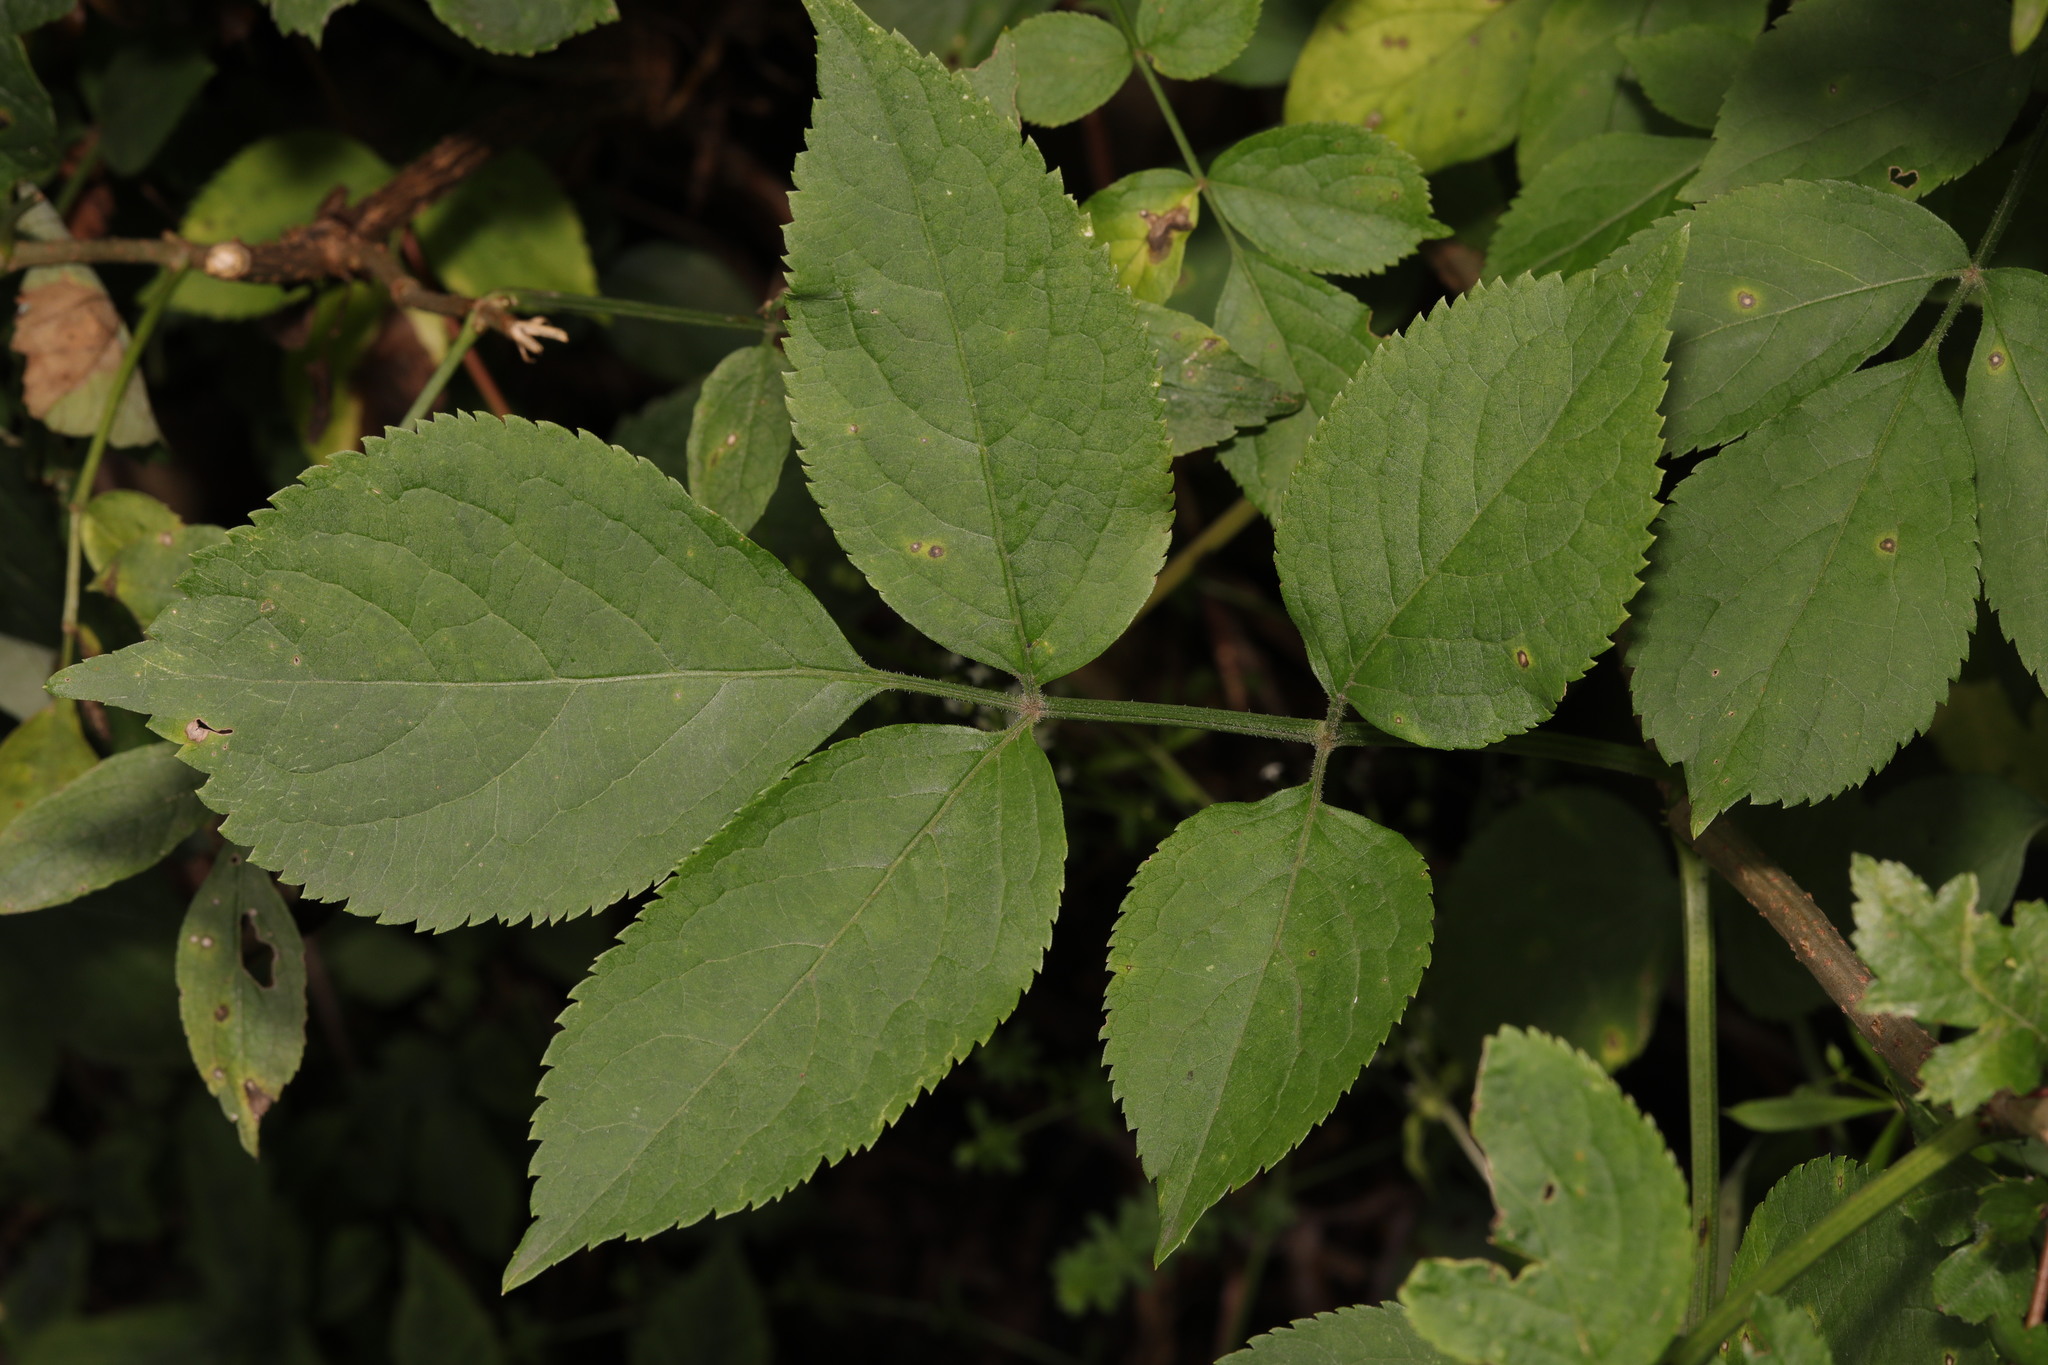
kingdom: Plantae
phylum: Tracheophyta
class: Magnoliopsida
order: Dipsacales
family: Viburnaceae
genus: Sambucus
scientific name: Sambucus nigra
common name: Elder
